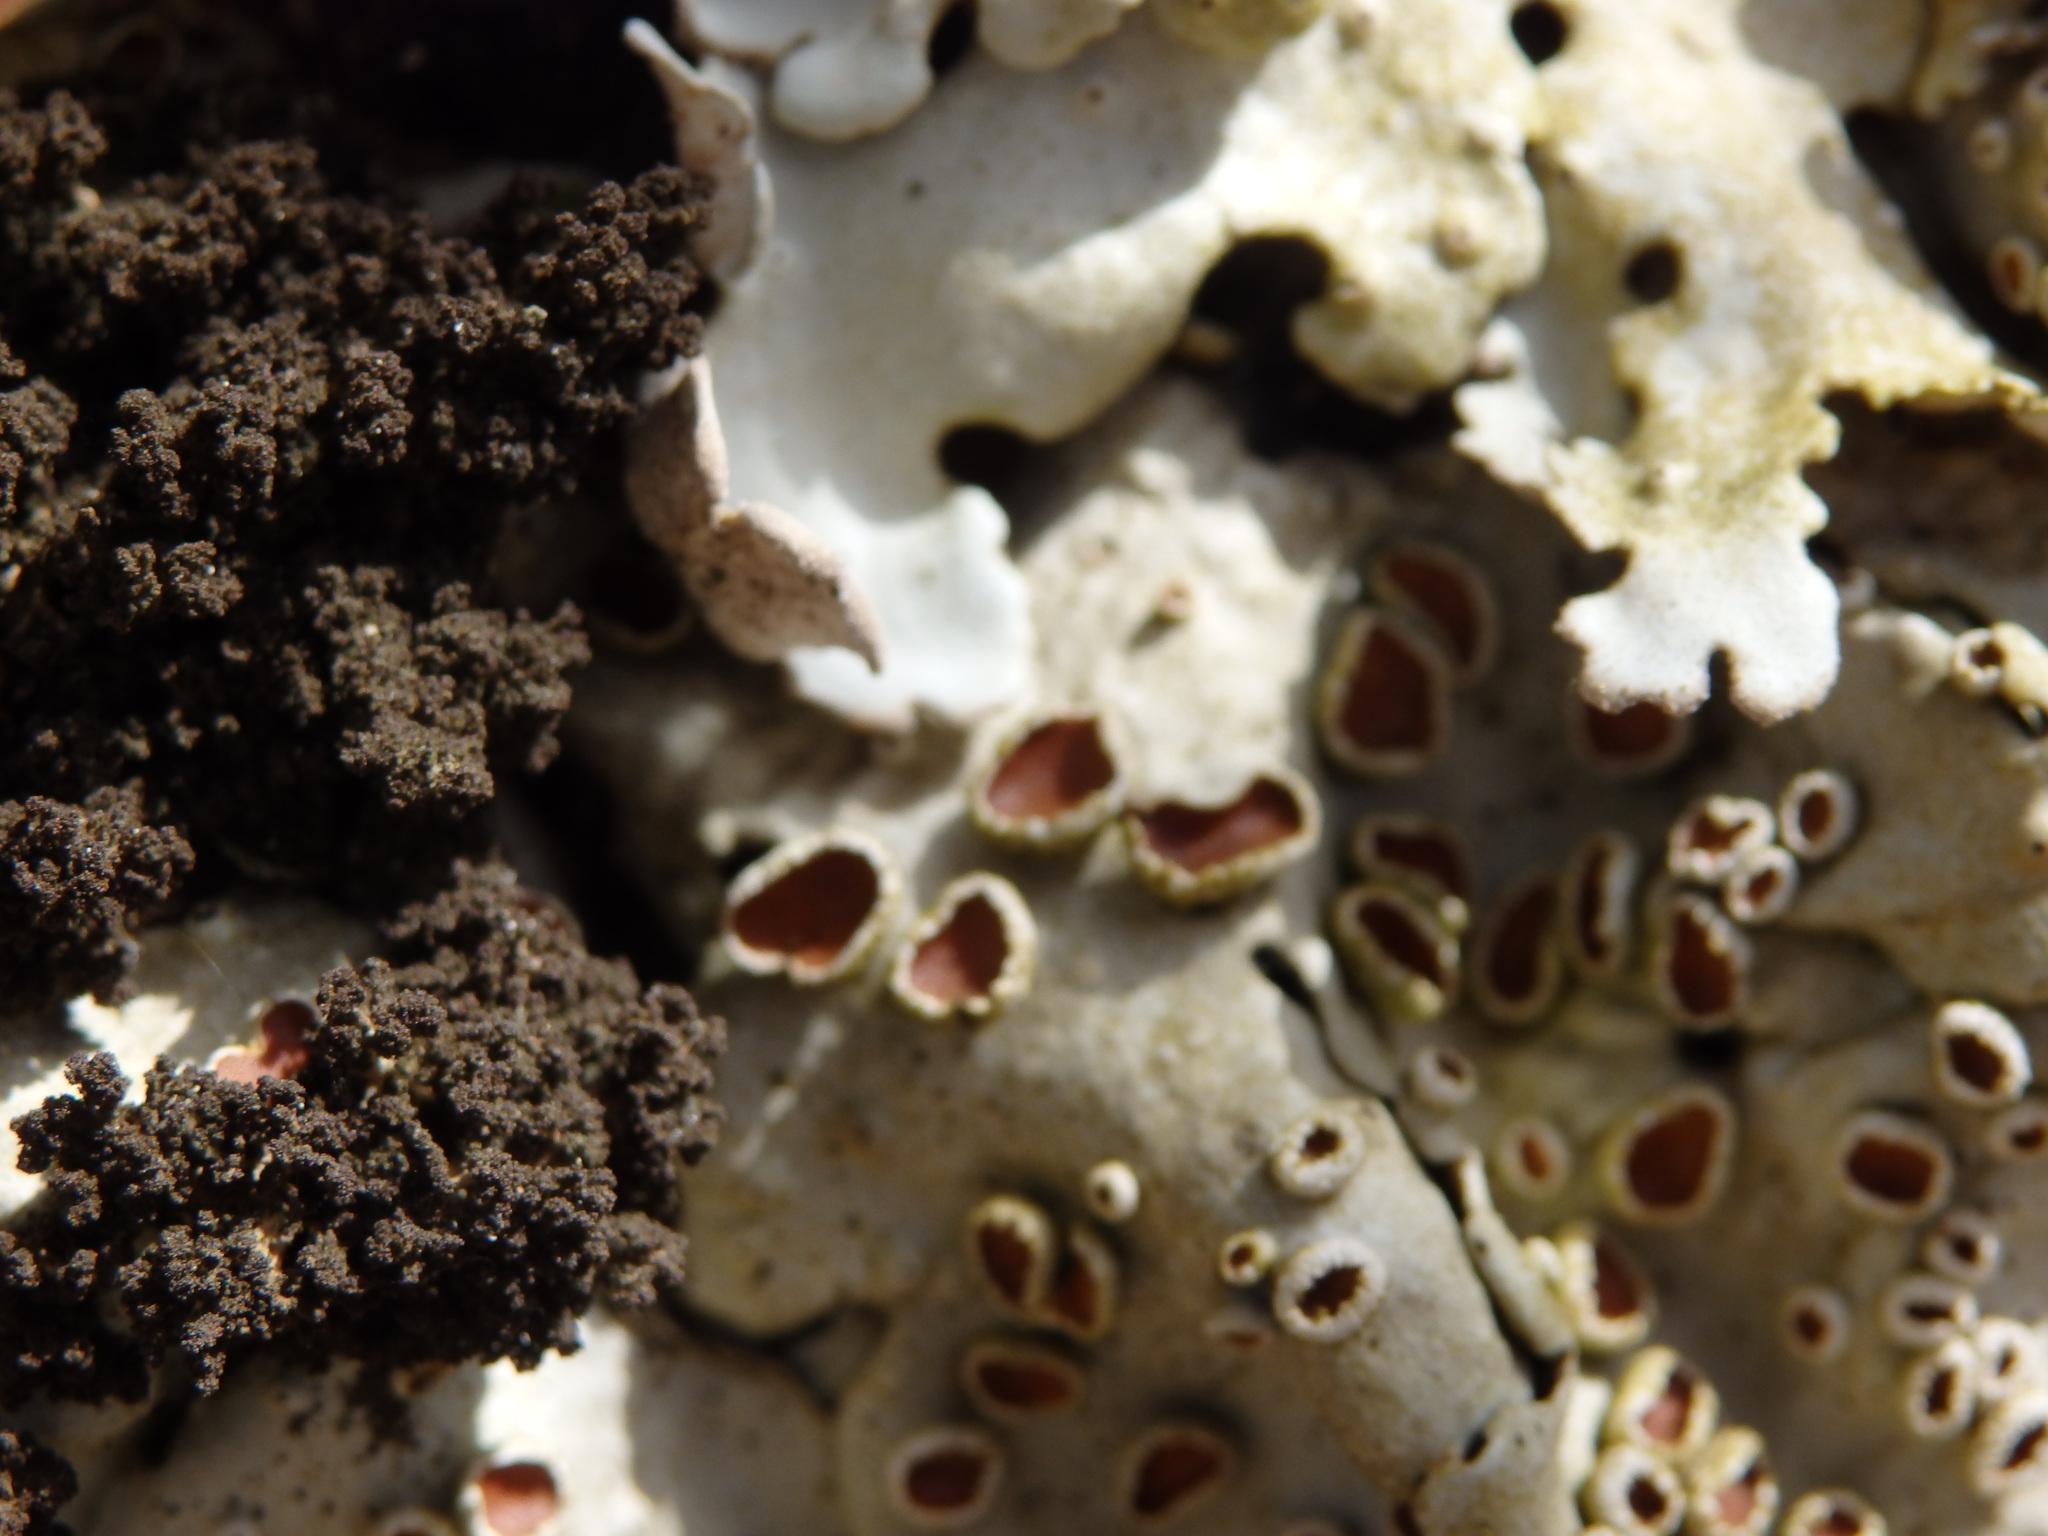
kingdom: Fungi
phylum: Ascomycota
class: Lecanoromycetes
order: Peltigerales
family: Lobariaceae
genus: Ricasolia
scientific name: Ricasolia amplissima
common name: Giant candlewax lichen
